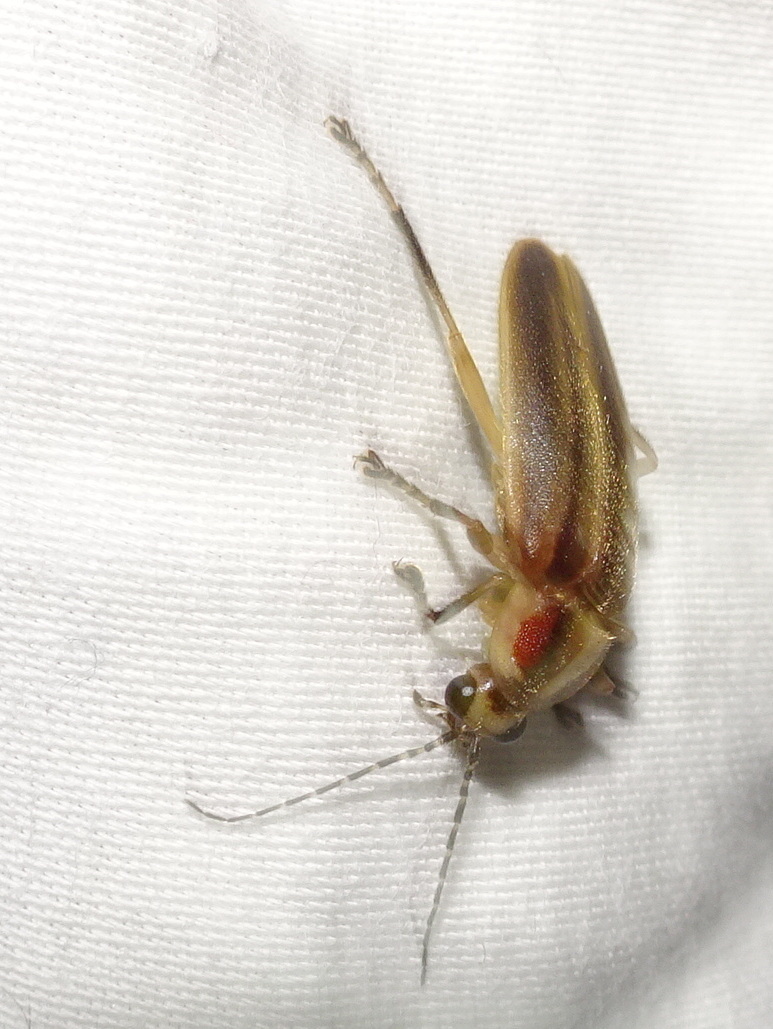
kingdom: Animalia
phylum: Arthropoda
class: Insecta
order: Coleoptera
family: Lampyridae
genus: Photuris
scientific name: Photuris
